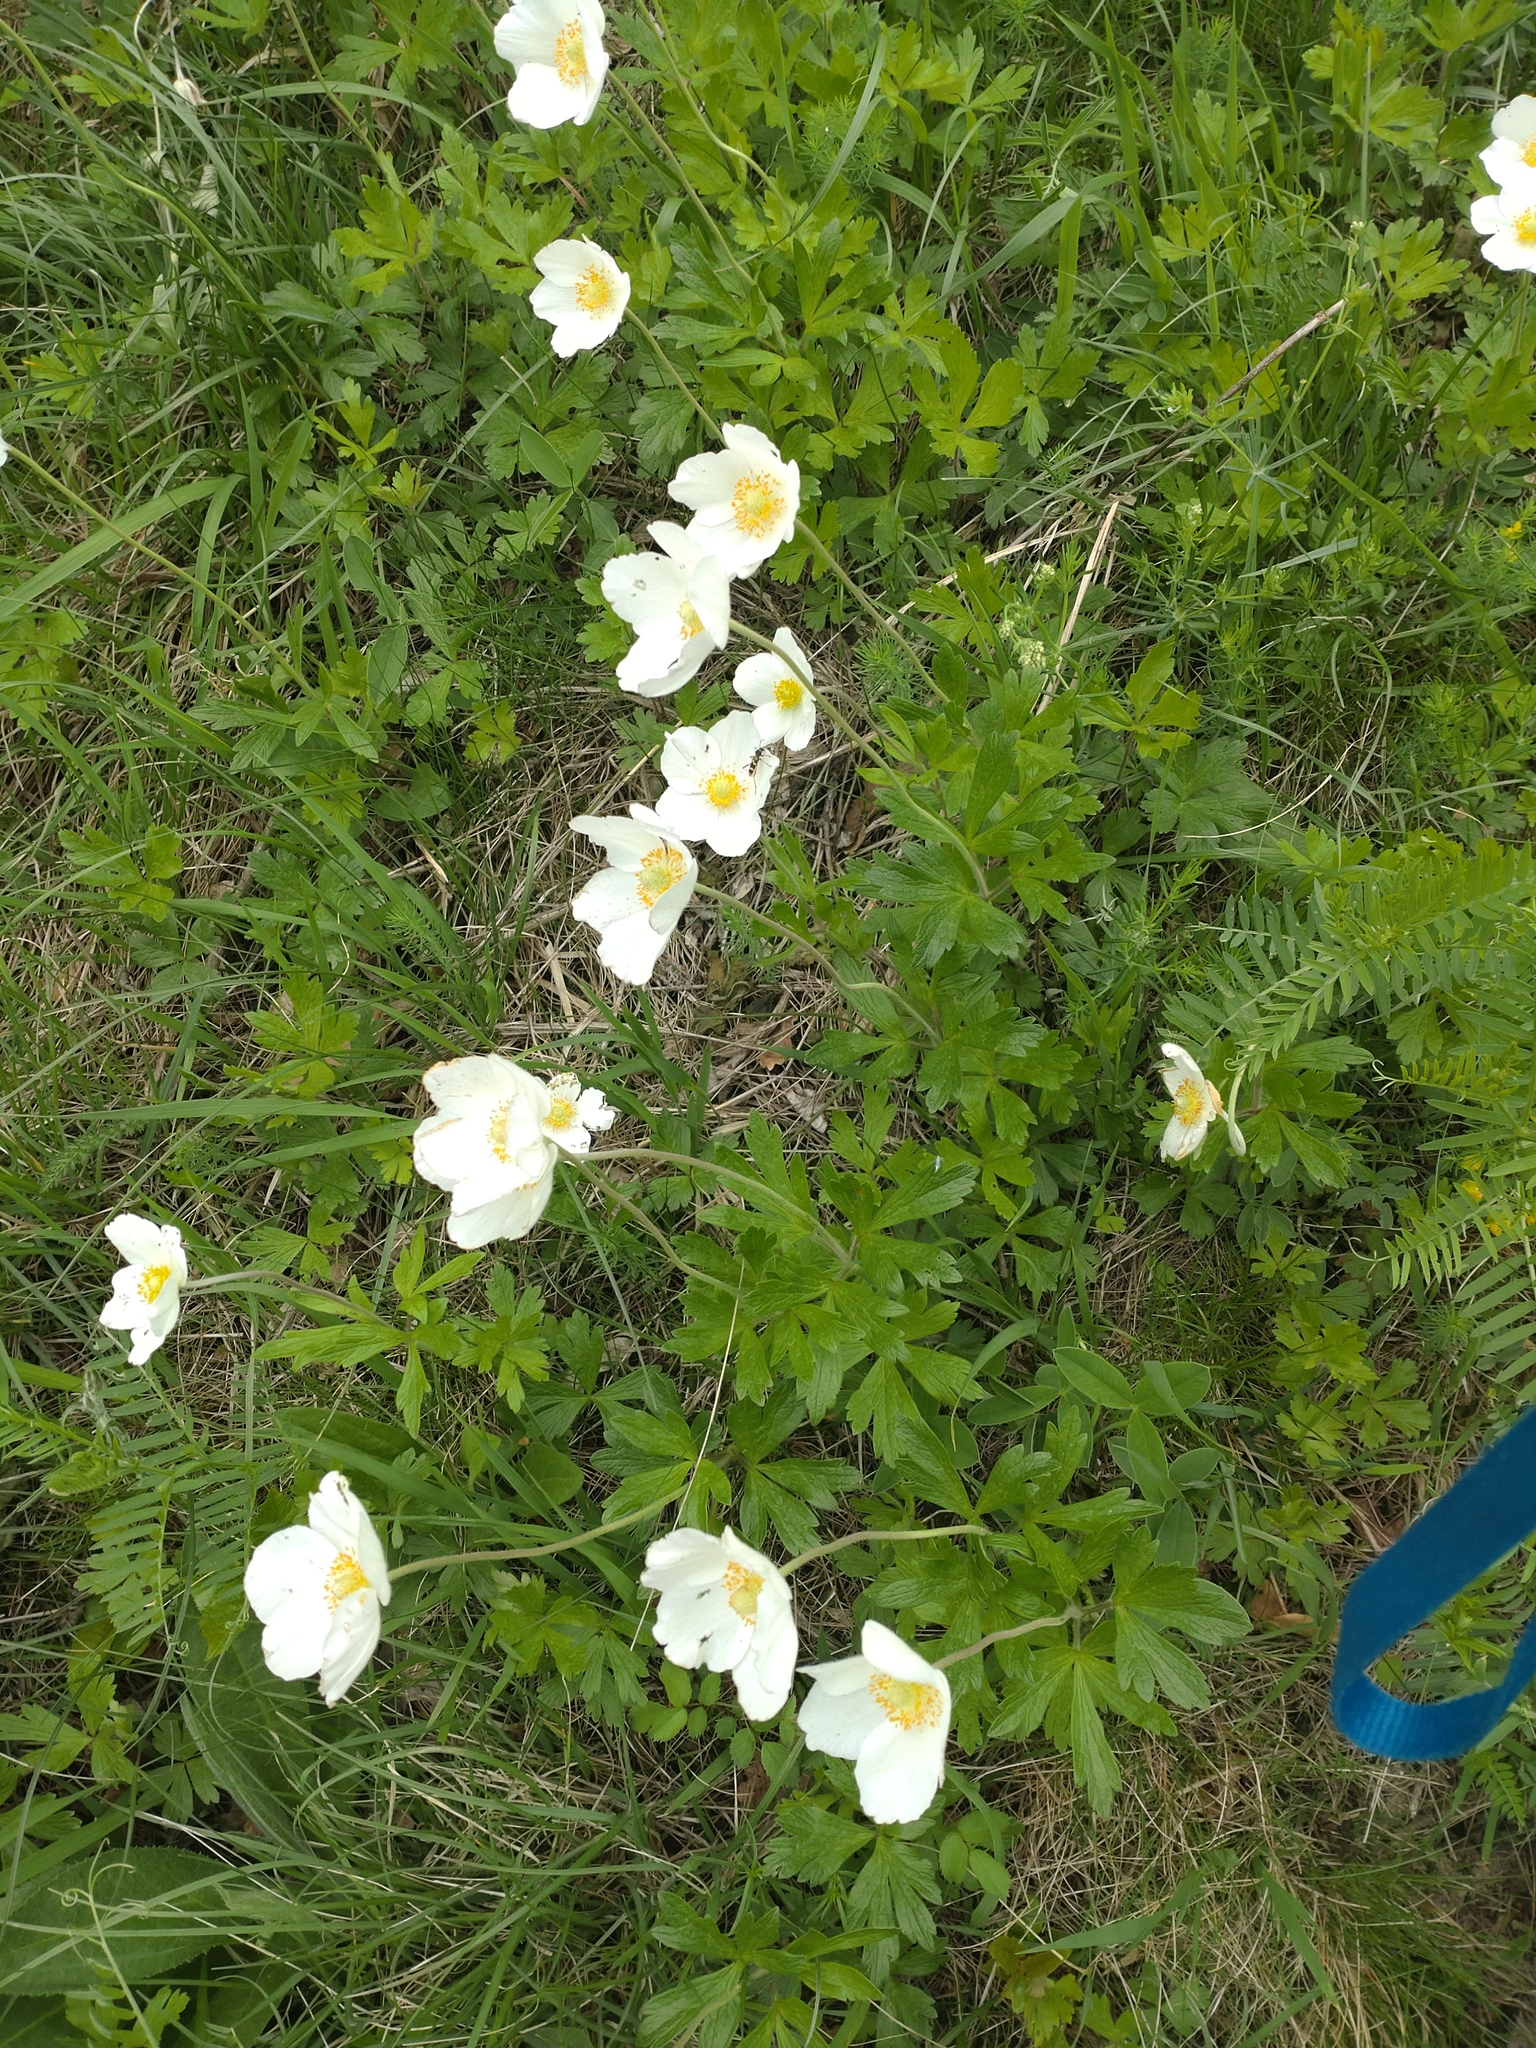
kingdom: Plantae
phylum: Tracheophyta
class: Magnoliopsida
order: Ranunculales
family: Ranunculaceae
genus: Anemone
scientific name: Anemone sylvestris
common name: Snowdrop anemone
